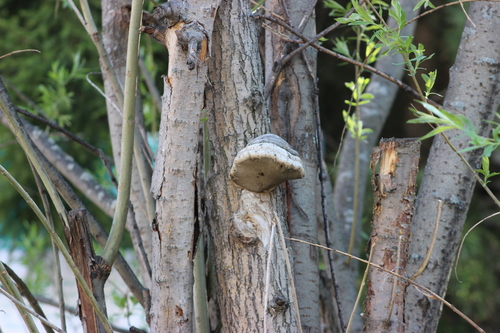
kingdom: Fungi
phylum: Basidiomycota
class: Agaricomycetes
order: Polyporales
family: Polyporaceae
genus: Fomes
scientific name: Fomes fomentarius
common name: Hoof fungus
